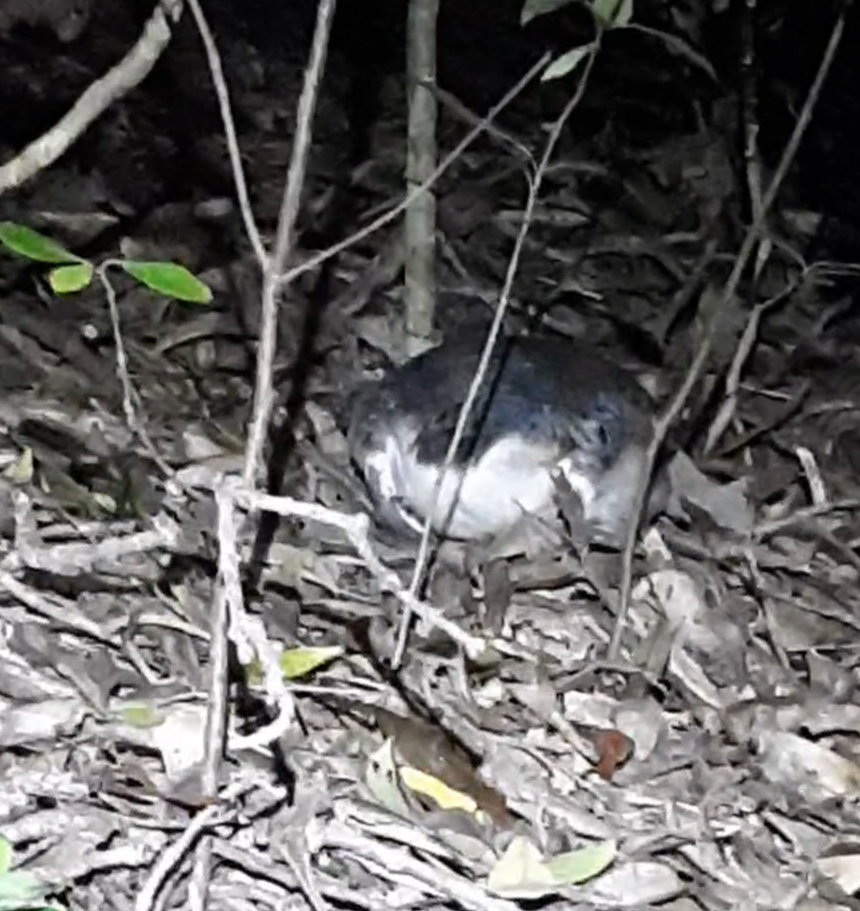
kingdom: Animalia
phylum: Chordata
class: Aves
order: Sphenisciformes
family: Spheniscidae
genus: Eudyptula
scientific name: Eudyptula minor
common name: Little penguin
